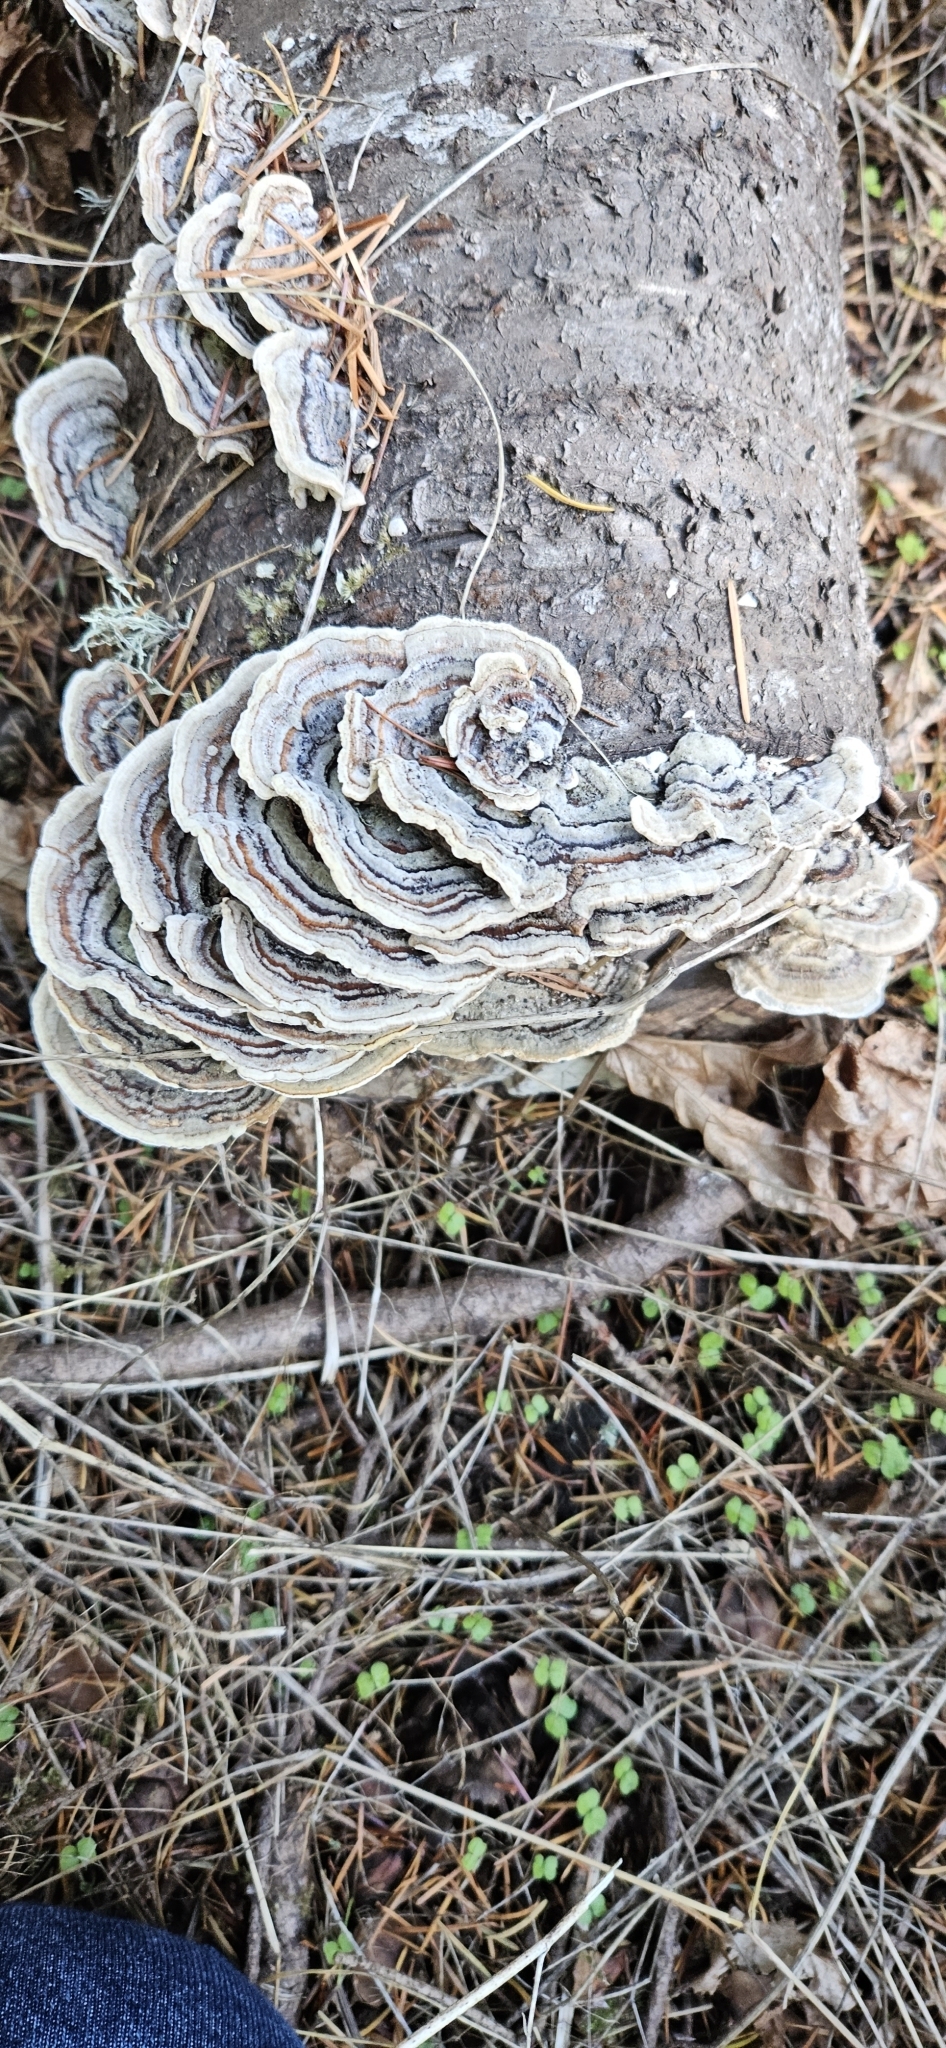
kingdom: Fungi
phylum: Basidiomycota
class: Agaricomycetes
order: Polyporales
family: Polyporaceae
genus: Trametes
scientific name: Trametes versicolor
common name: Turkeytail
